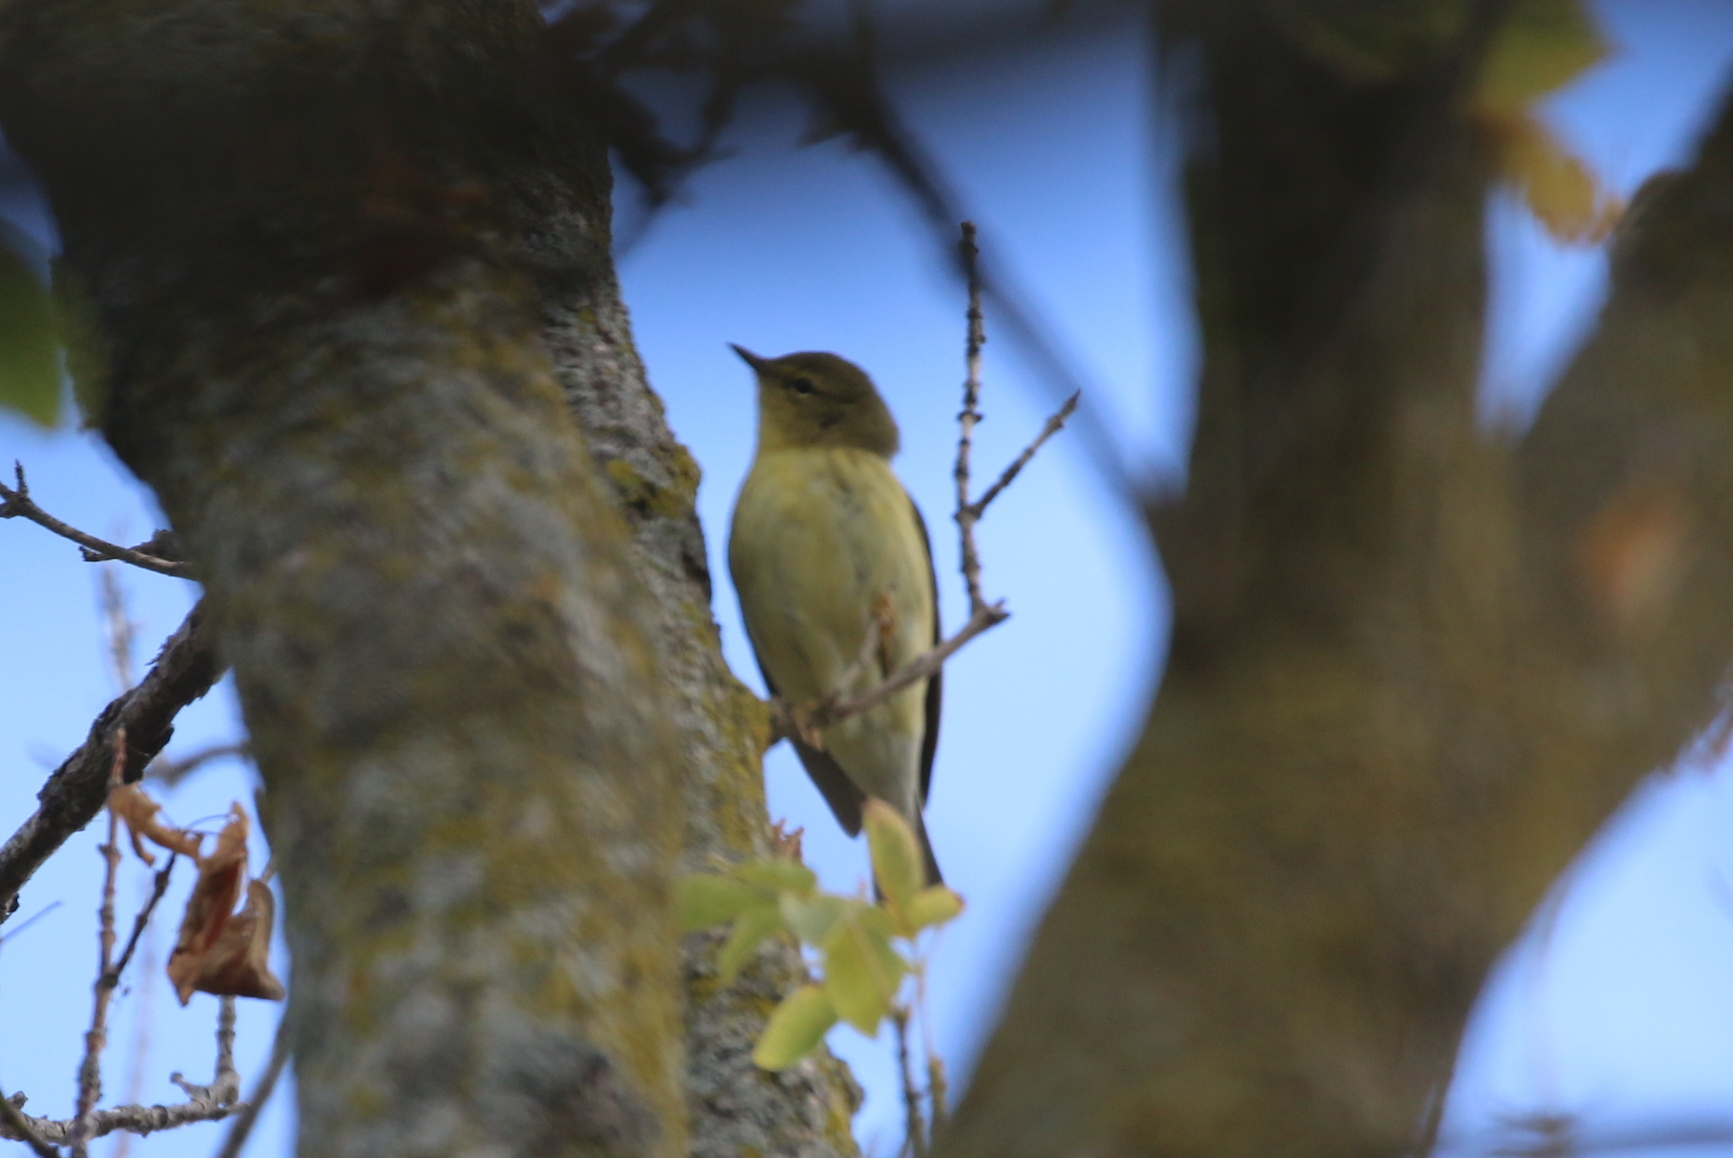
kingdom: Animalia
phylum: Chordata
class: Aves
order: Passeriformes
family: Parulidae
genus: Leiothlypis
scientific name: Leiothlypis peregrina
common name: Tennessee warbler
